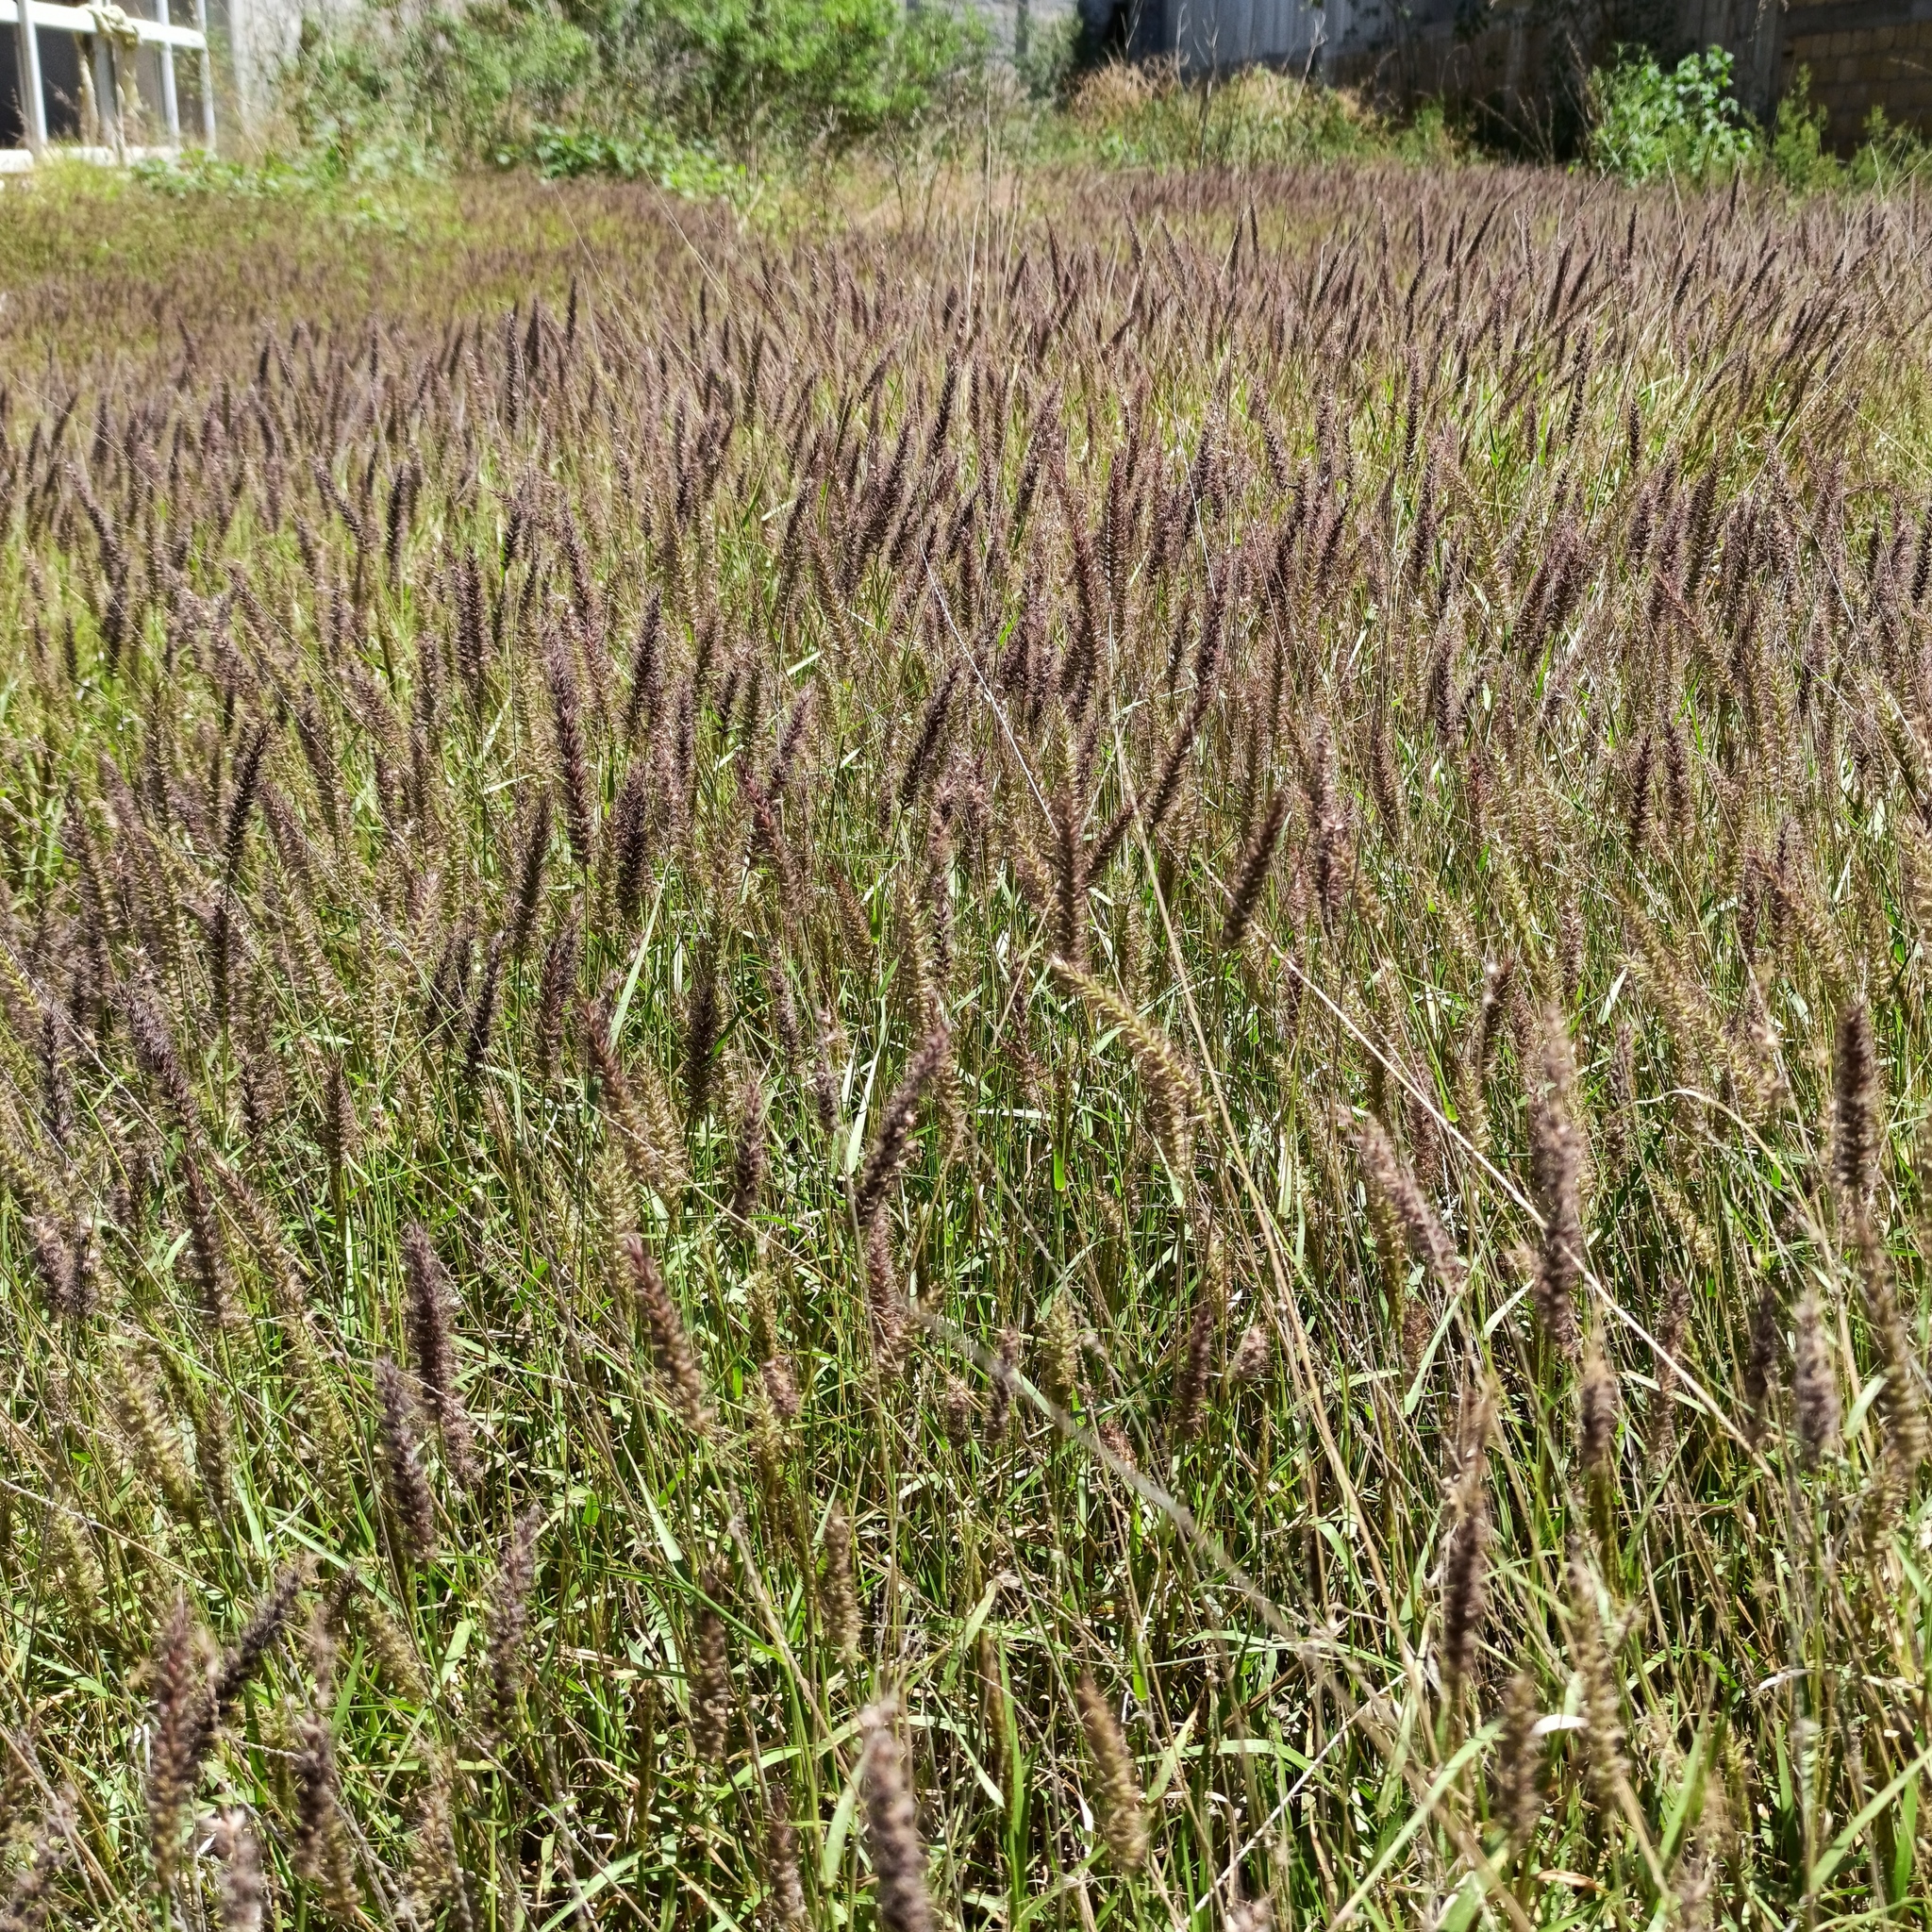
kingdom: Plantae
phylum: Tracheophyta
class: Liliopsida
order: Poales
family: Poaceae
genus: Cenchrus
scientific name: Cenchrus ciliaris
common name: Buffelgrass
